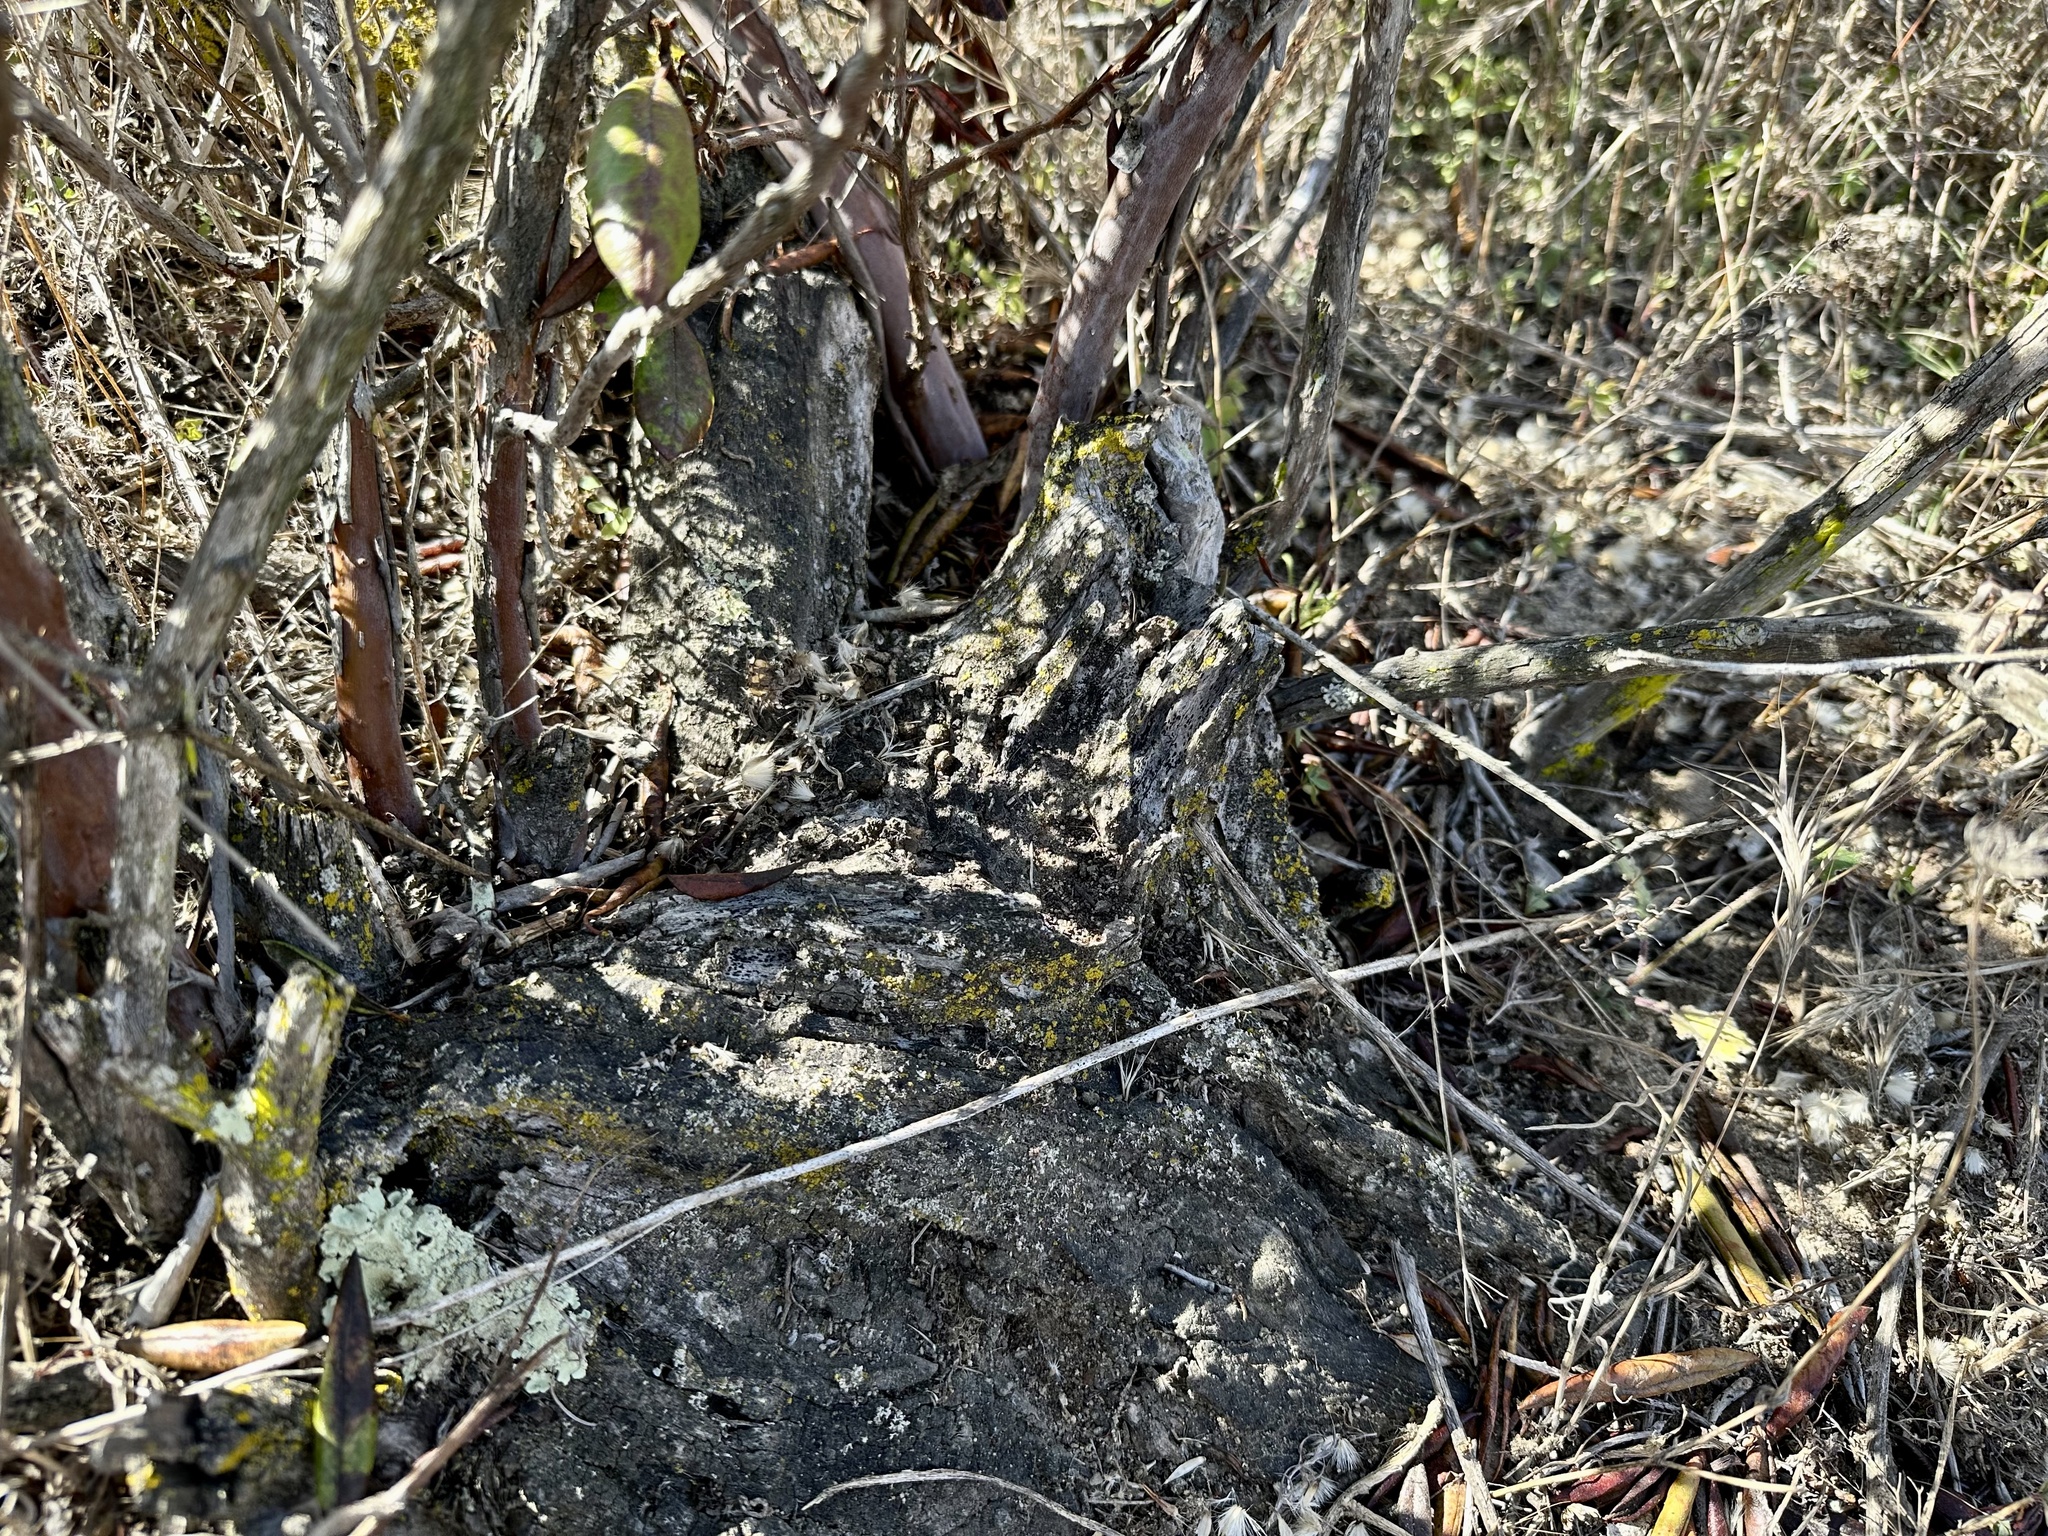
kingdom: Plantae
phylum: Tracheophyta
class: Magnoliopsida
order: Ericales
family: Ericaceae
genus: Arctostaphylos
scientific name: Arctostaphylos bicolor
